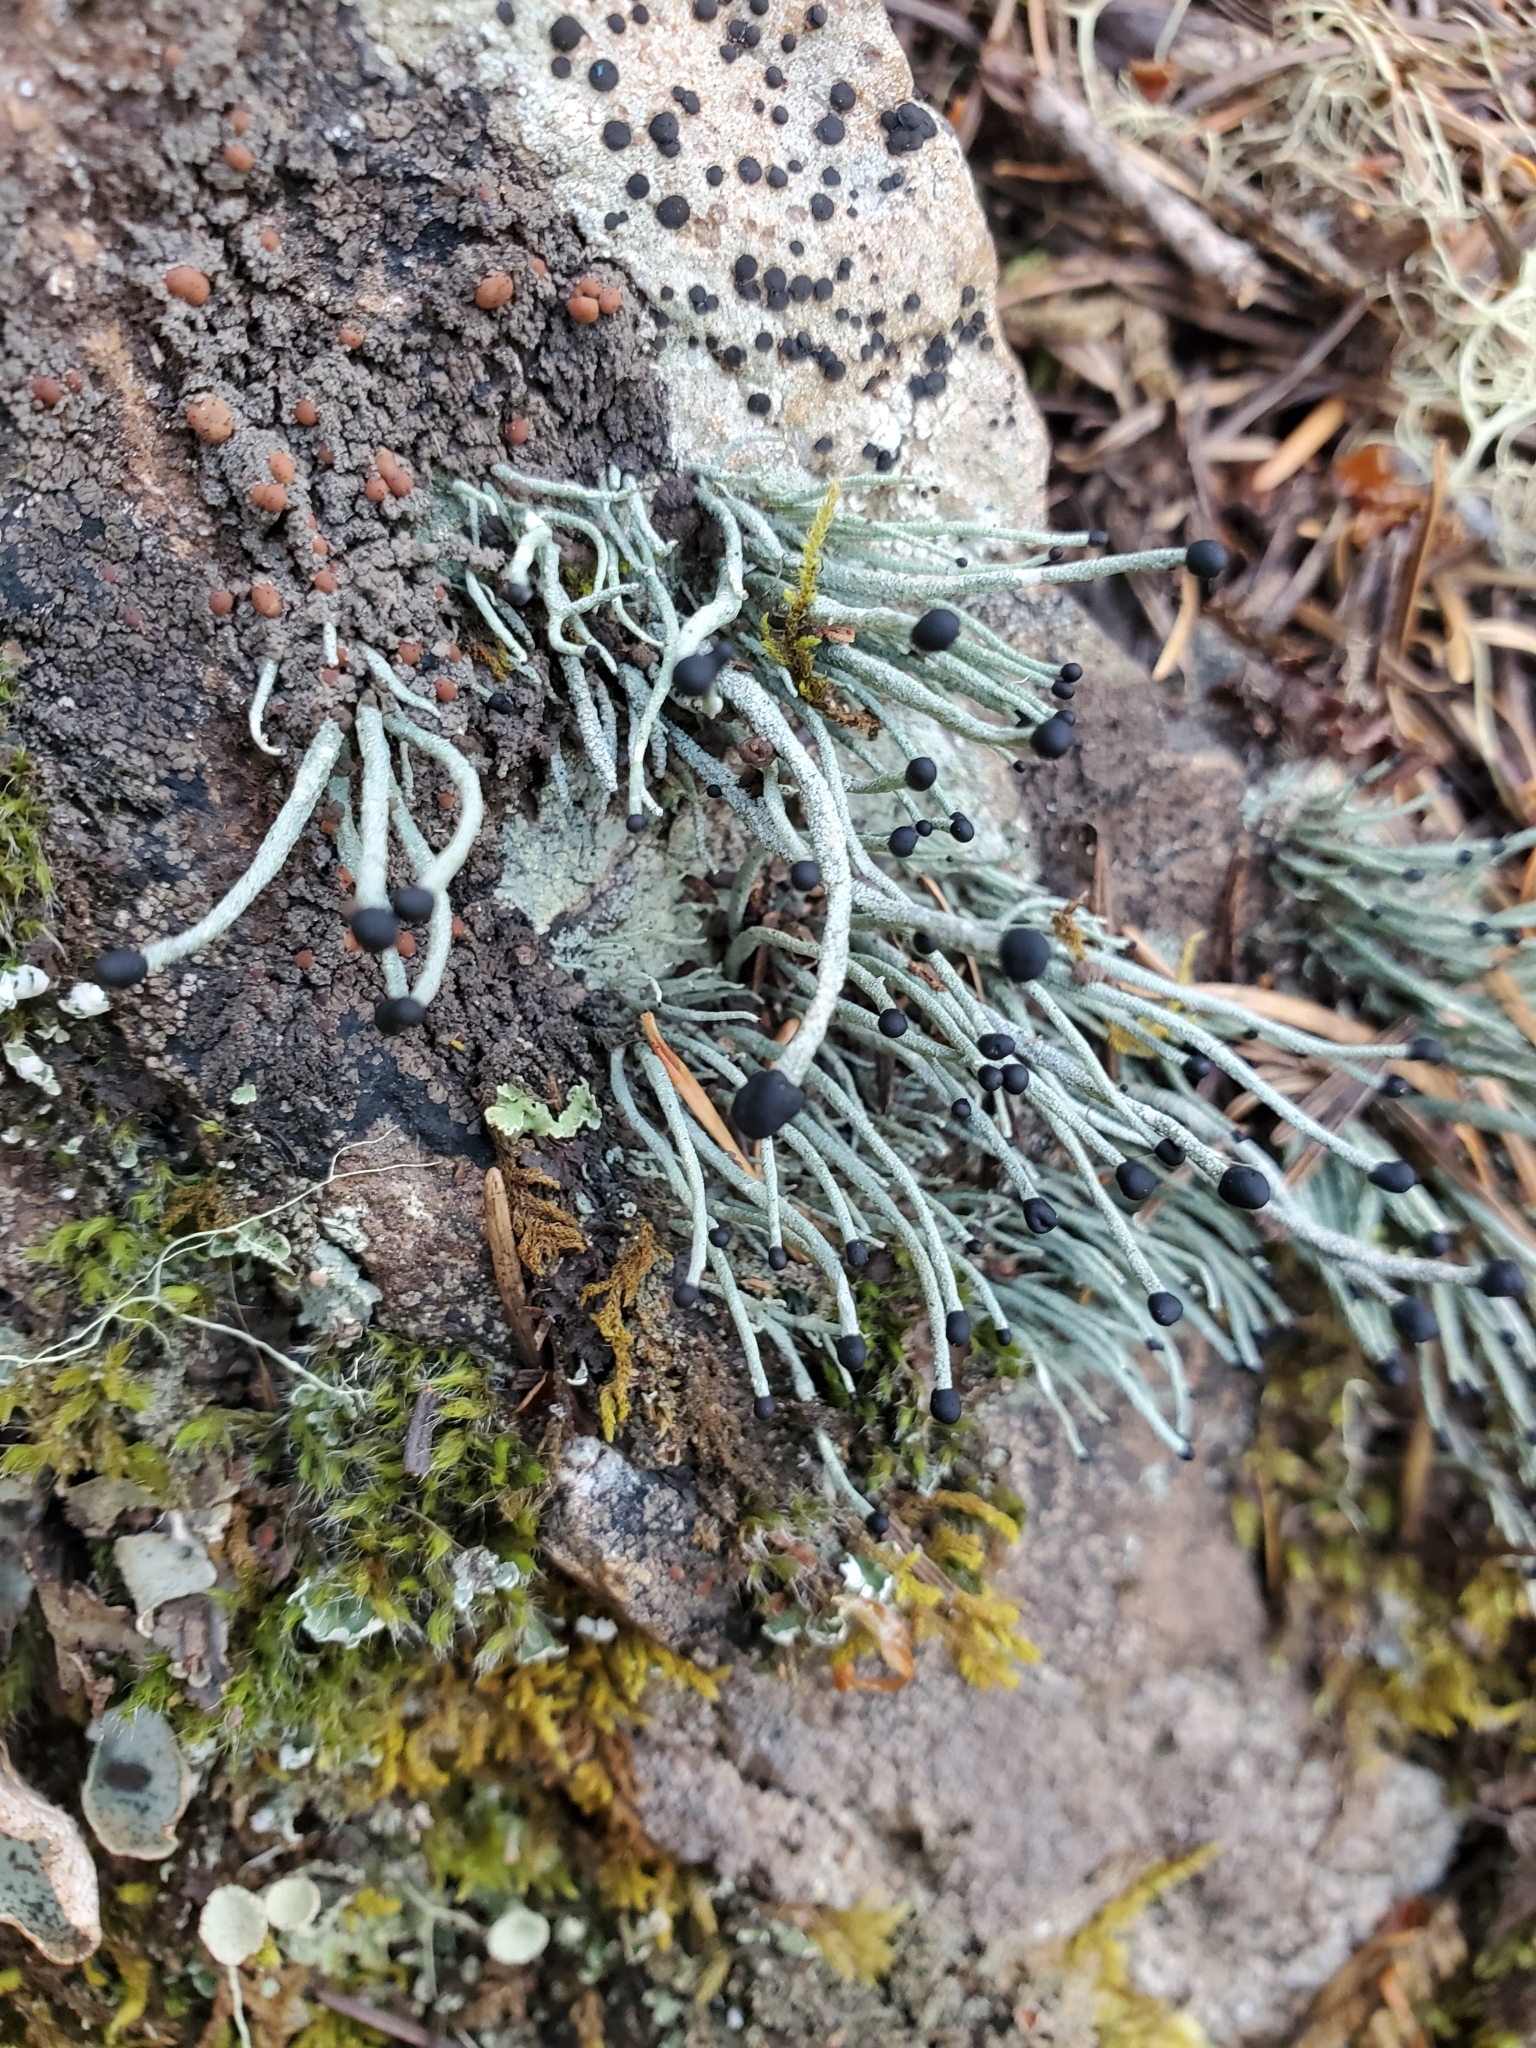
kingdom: Fungi
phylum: Ascomycota
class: Lecanoromycetes
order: Lecanorales
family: Cladoniaceae
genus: Pilophorus
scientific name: Pilophorus acicularis
